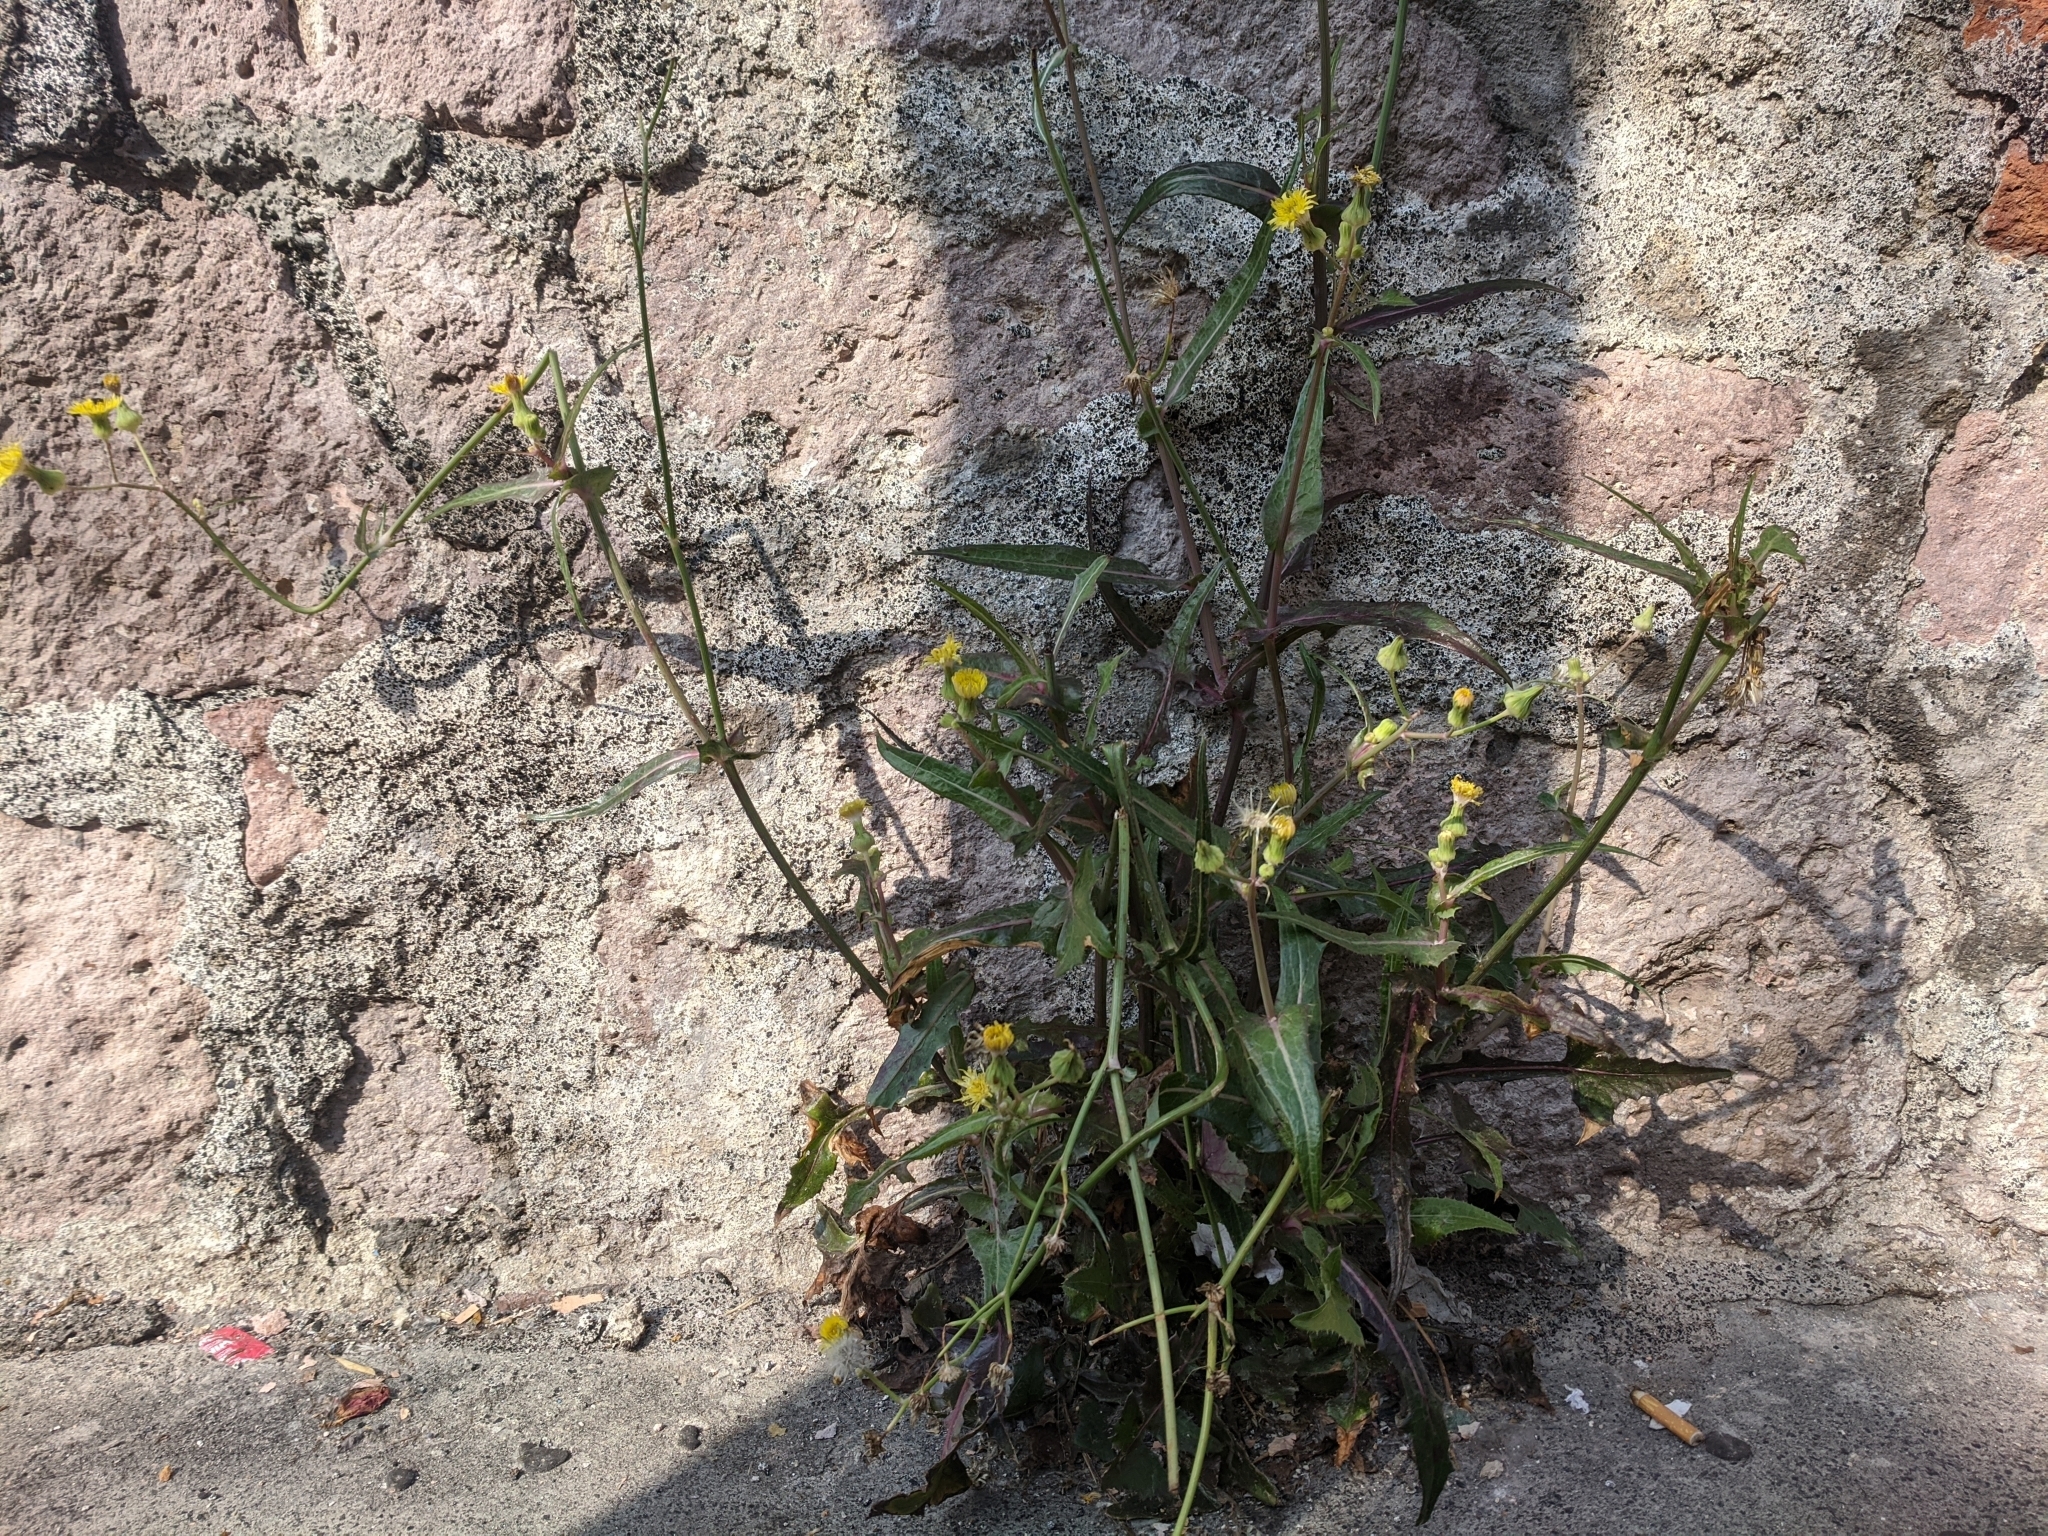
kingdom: Plantae
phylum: Tracheophyta
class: Magnoliopsida
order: Asterales
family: Asteraceae
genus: Sonchus
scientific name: Sonchus oleraceus
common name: Common sowthistle
